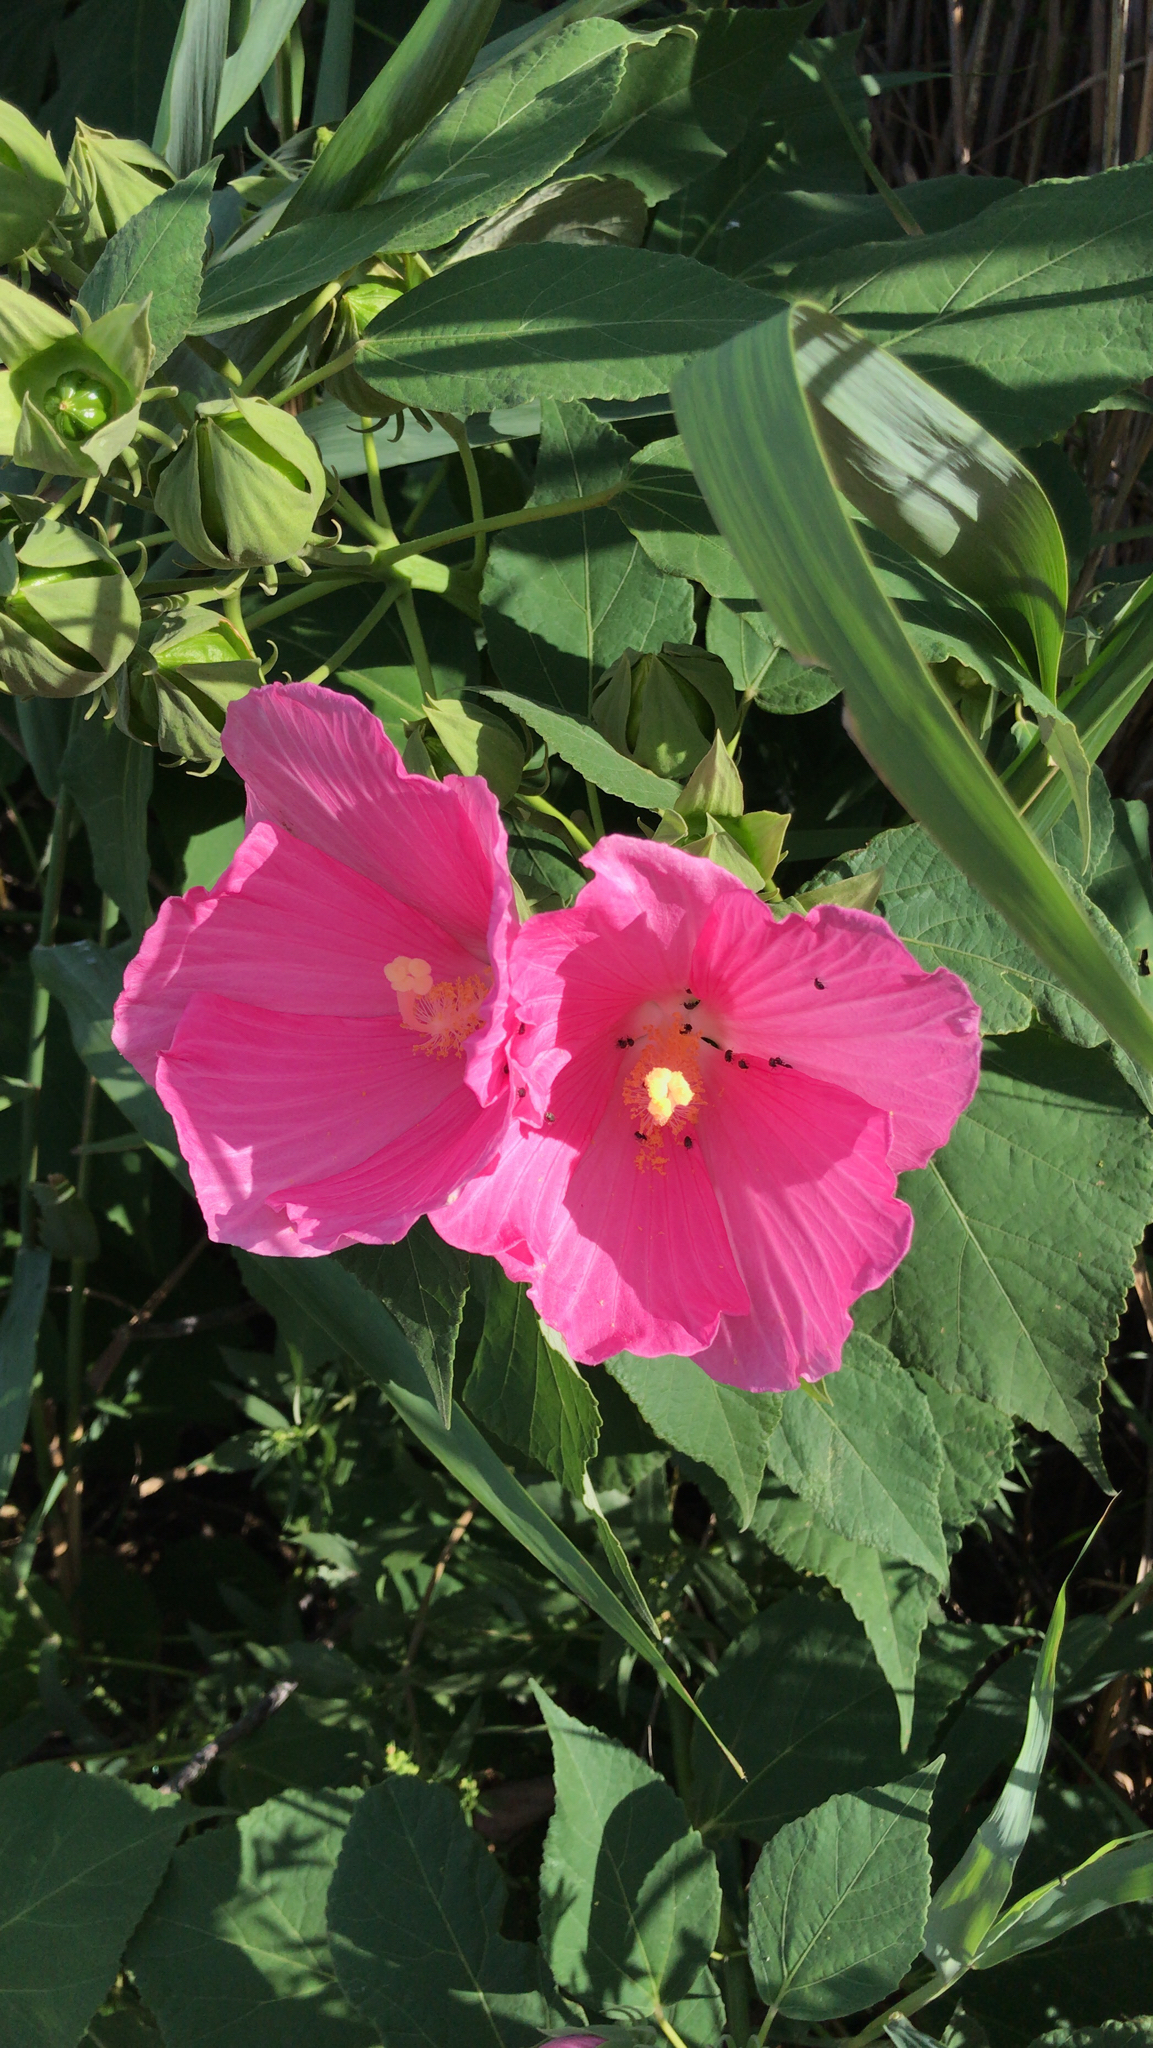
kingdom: Plantae
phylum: Tracheophyta
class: Magnoliopsida
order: Malvales
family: Malvaceae
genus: Hibiscus
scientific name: Hibiscus moscheutos
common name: Common rose-mallow
